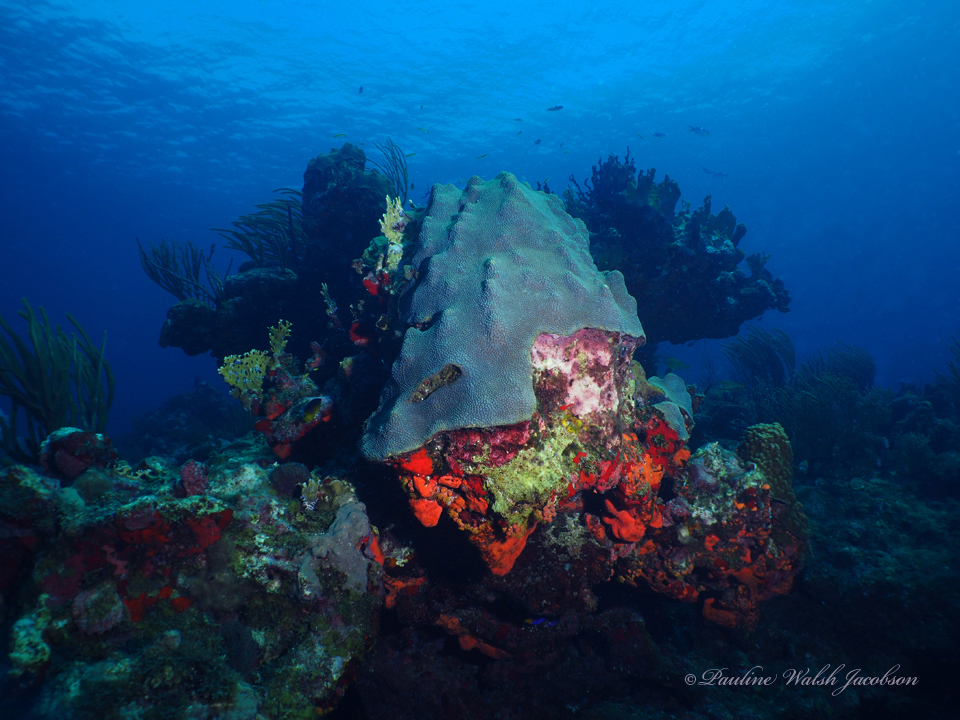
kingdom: Animalia
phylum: Cnidaria
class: Anthozoa
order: Scleractinia
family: Merulinidae
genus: Orbicella
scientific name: Orbicella faveolata
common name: Mountainous star coral
